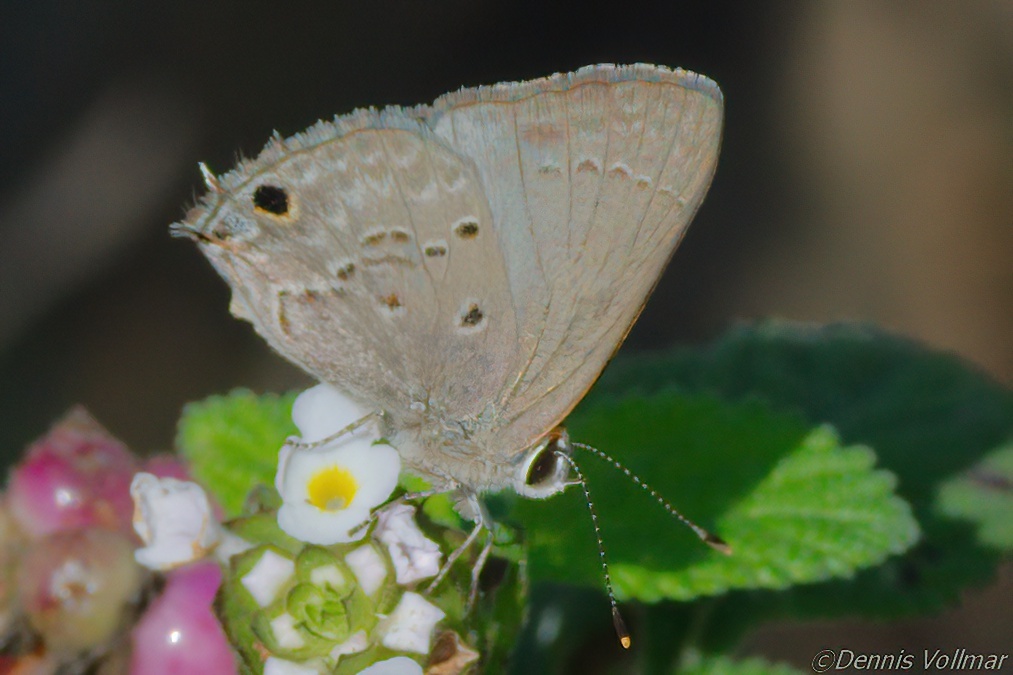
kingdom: Animalia
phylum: Arthropoda
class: Insecta
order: Lepidoptera
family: Lycaenidae
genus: Callicista
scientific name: Callicista columella
